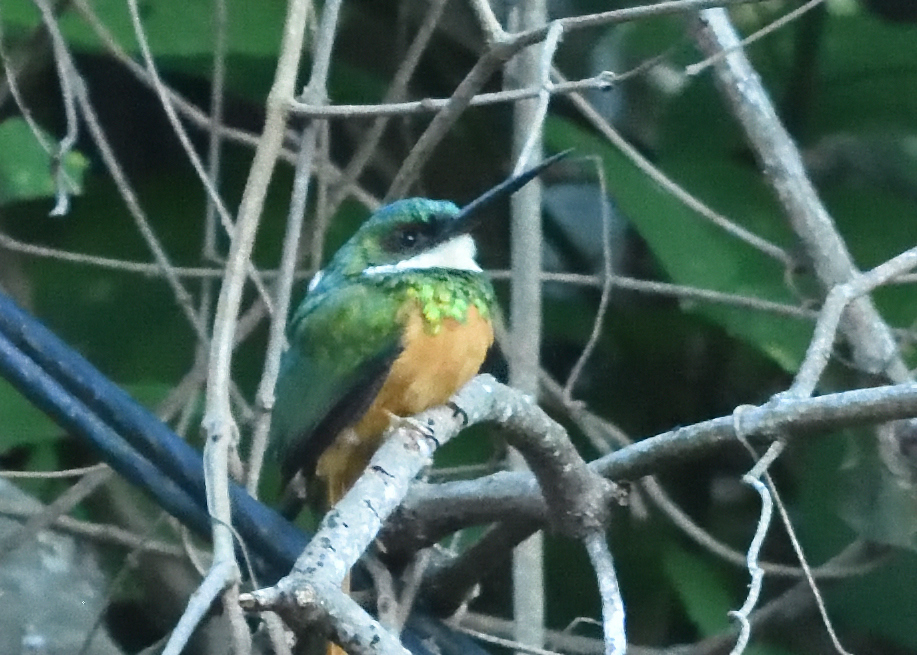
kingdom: Animalia
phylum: Chordata
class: Aves
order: Piciformes
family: Galbulidae
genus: Galbula
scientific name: Galbula ruficauda
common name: Rufous-tailed jacamar
